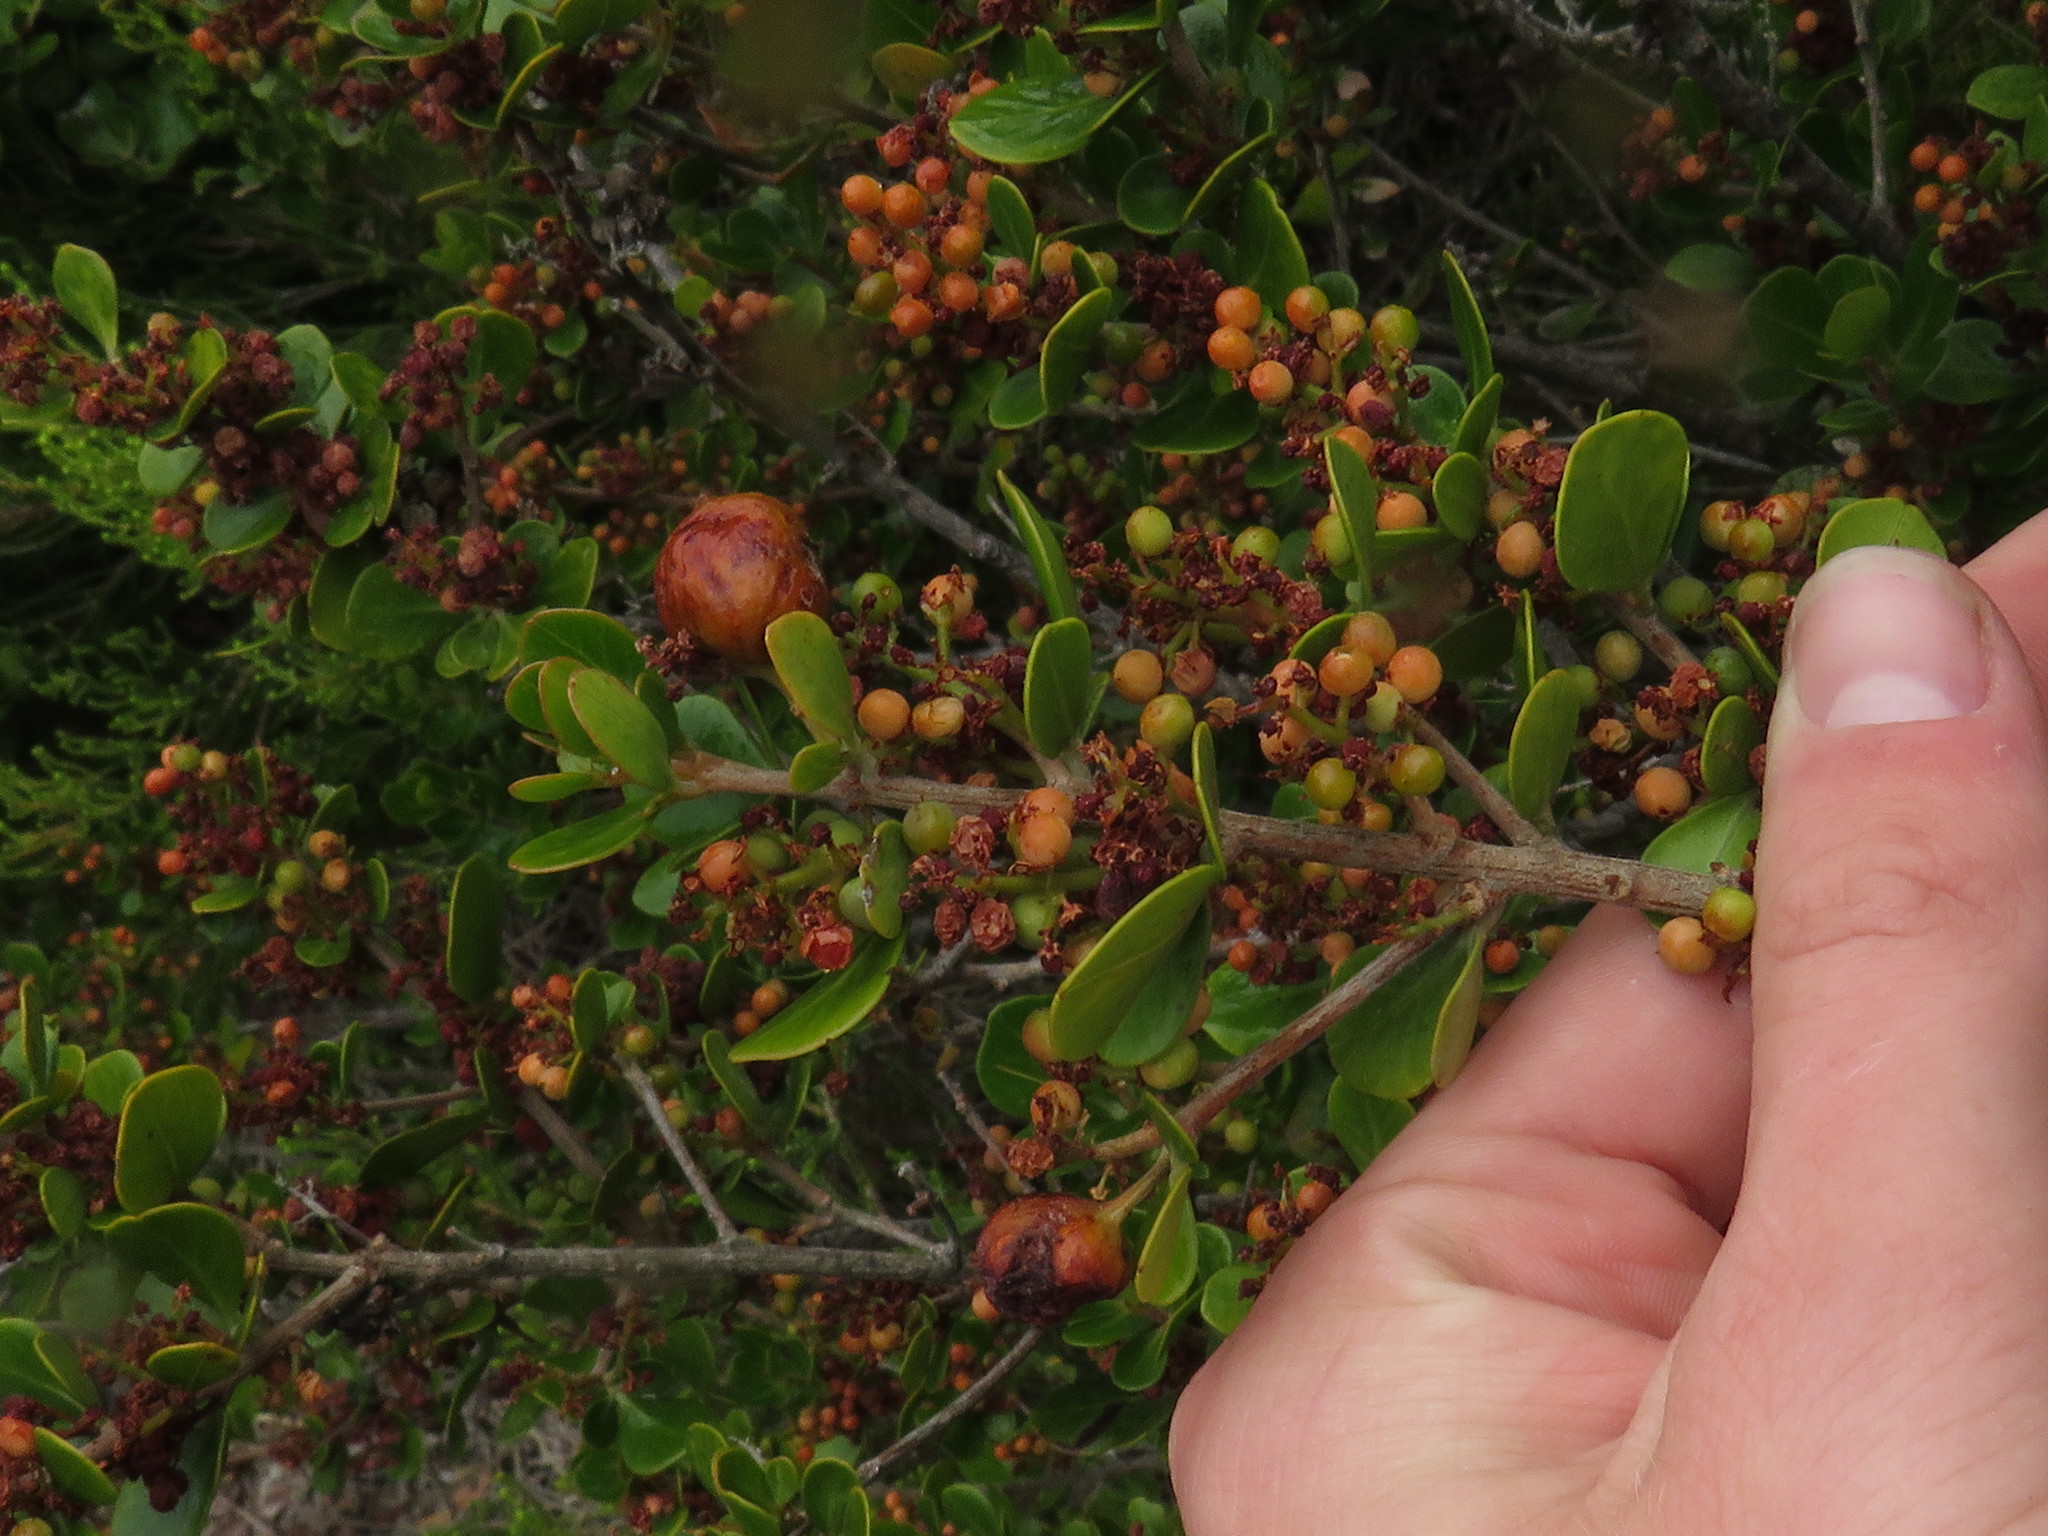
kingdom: Animalia
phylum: Arthropoda
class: Insecta
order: Hymenoptera
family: Cynipidae
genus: Rhoophilus
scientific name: Rhoophilus loewi
